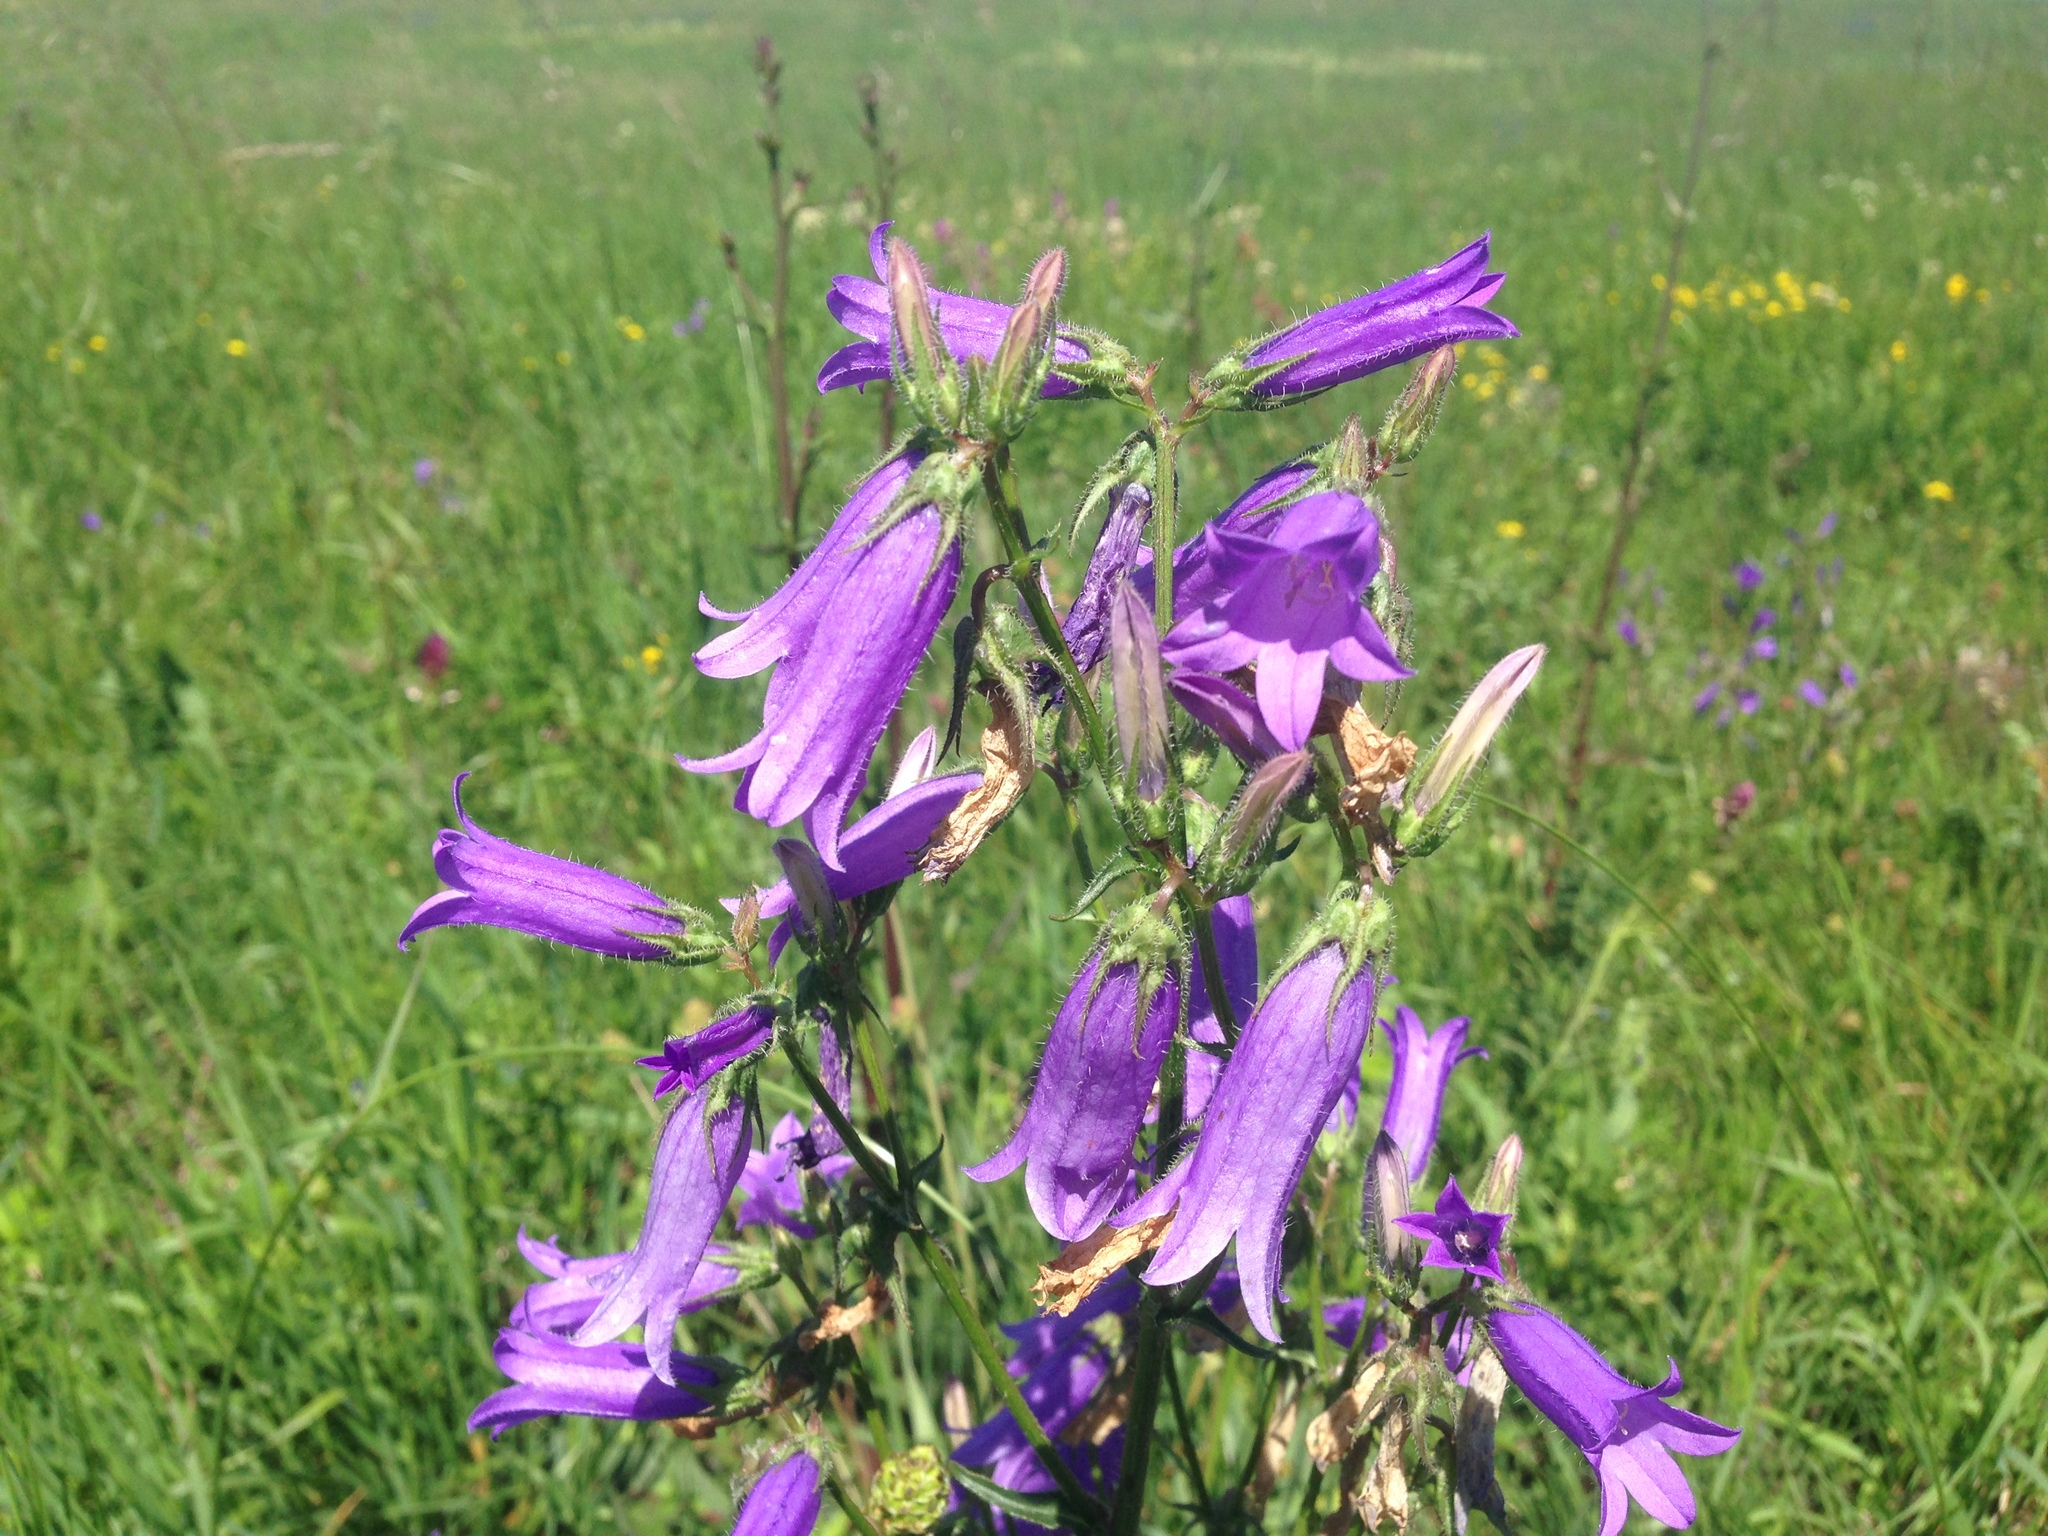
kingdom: Plantae
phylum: Tracheophyta
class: Magnoliopsida
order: Asterales
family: Campanulaceae
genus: Campanula
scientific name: Campanula sibirica
